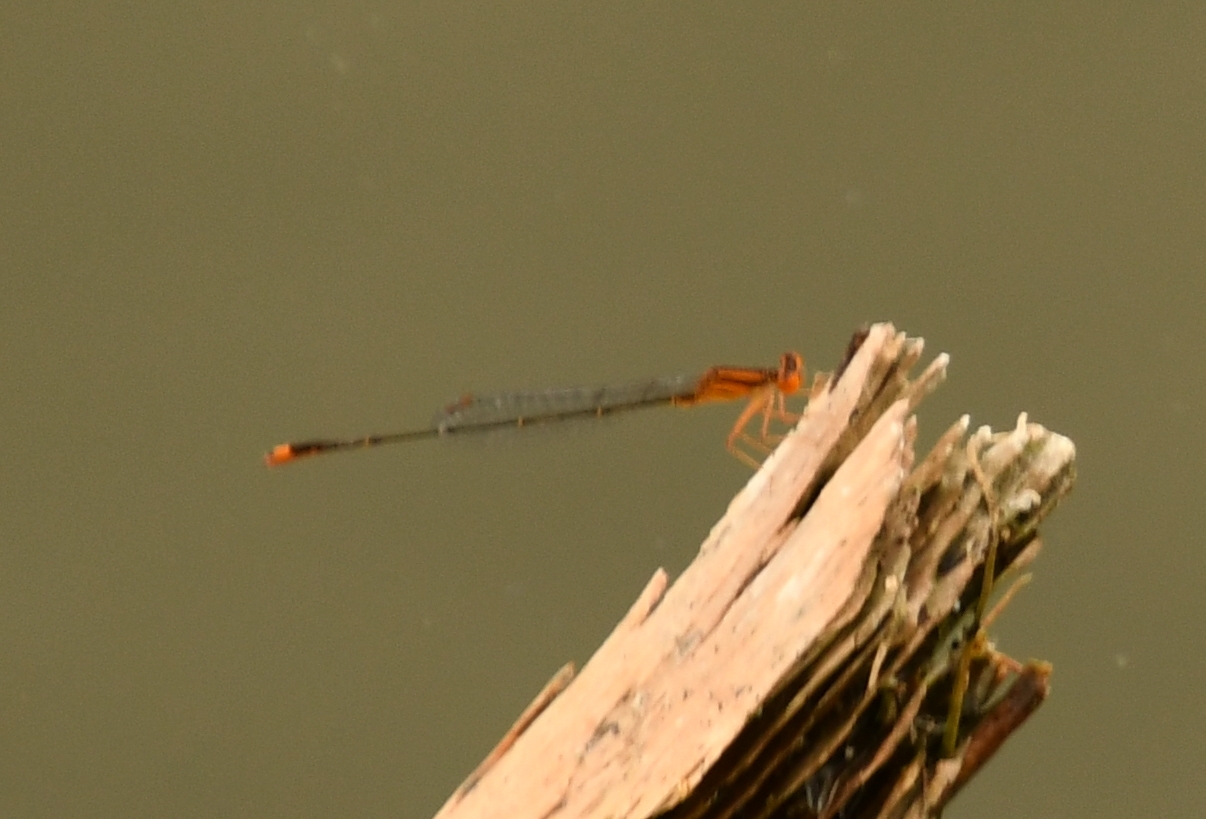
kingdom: Animalia
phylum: Arthropoda
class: Insecta
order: Odonata
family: Coenagrionidae
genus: Enallagma
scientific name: Enallagma pollutum
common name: Florida bluet
